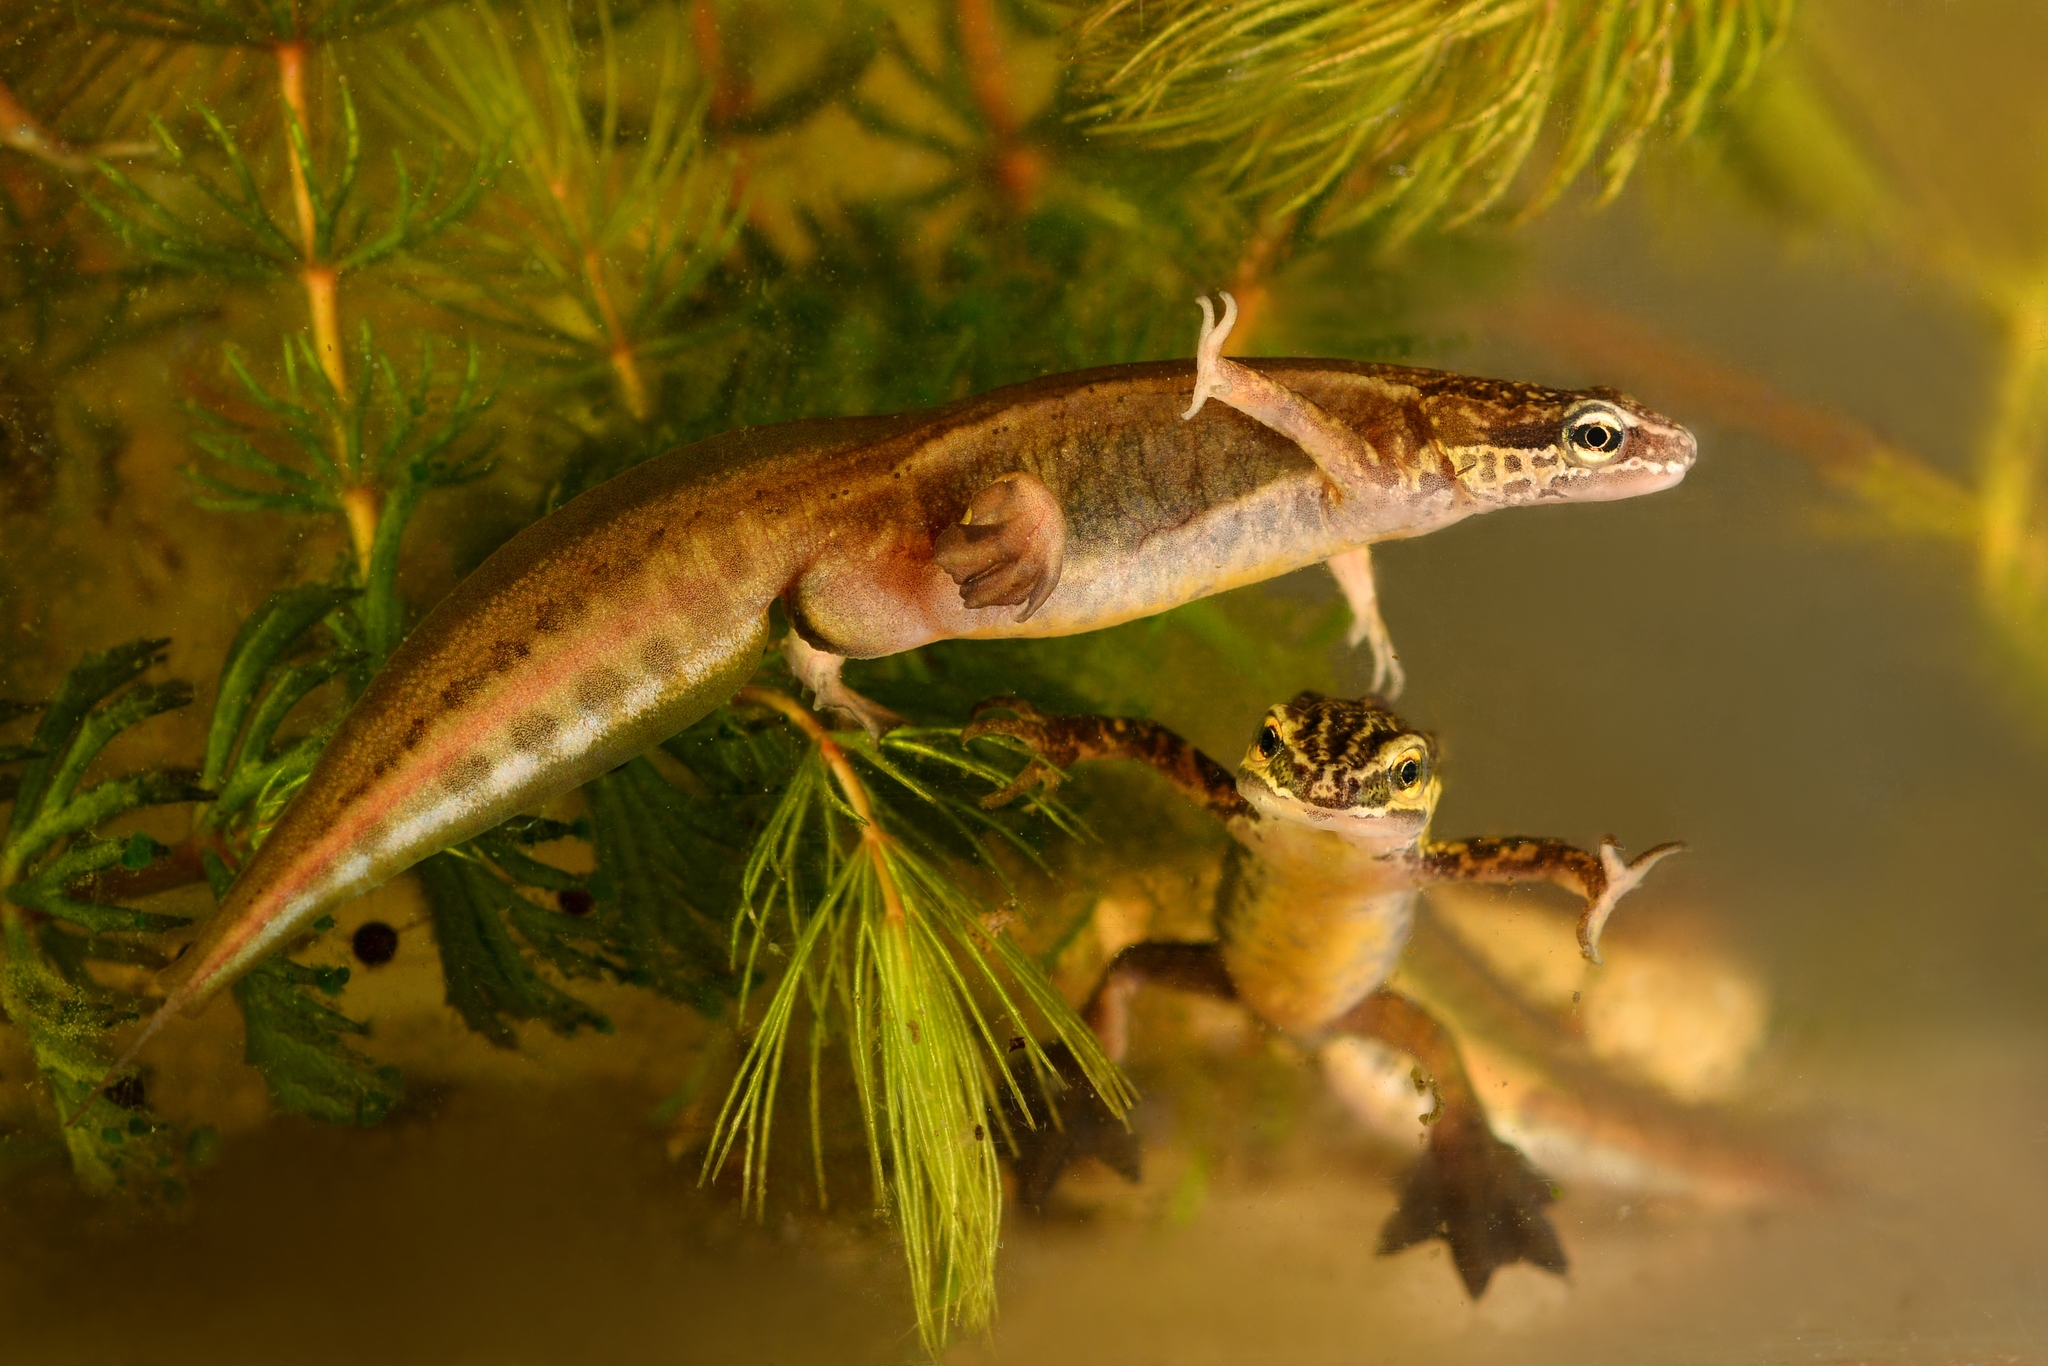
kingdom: Animalia
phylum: Chordata
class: Amphibia
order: Caudata
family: Salamandridae
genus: Lissotriton
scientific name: Lissotriton helveticus
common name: Palmate newt
